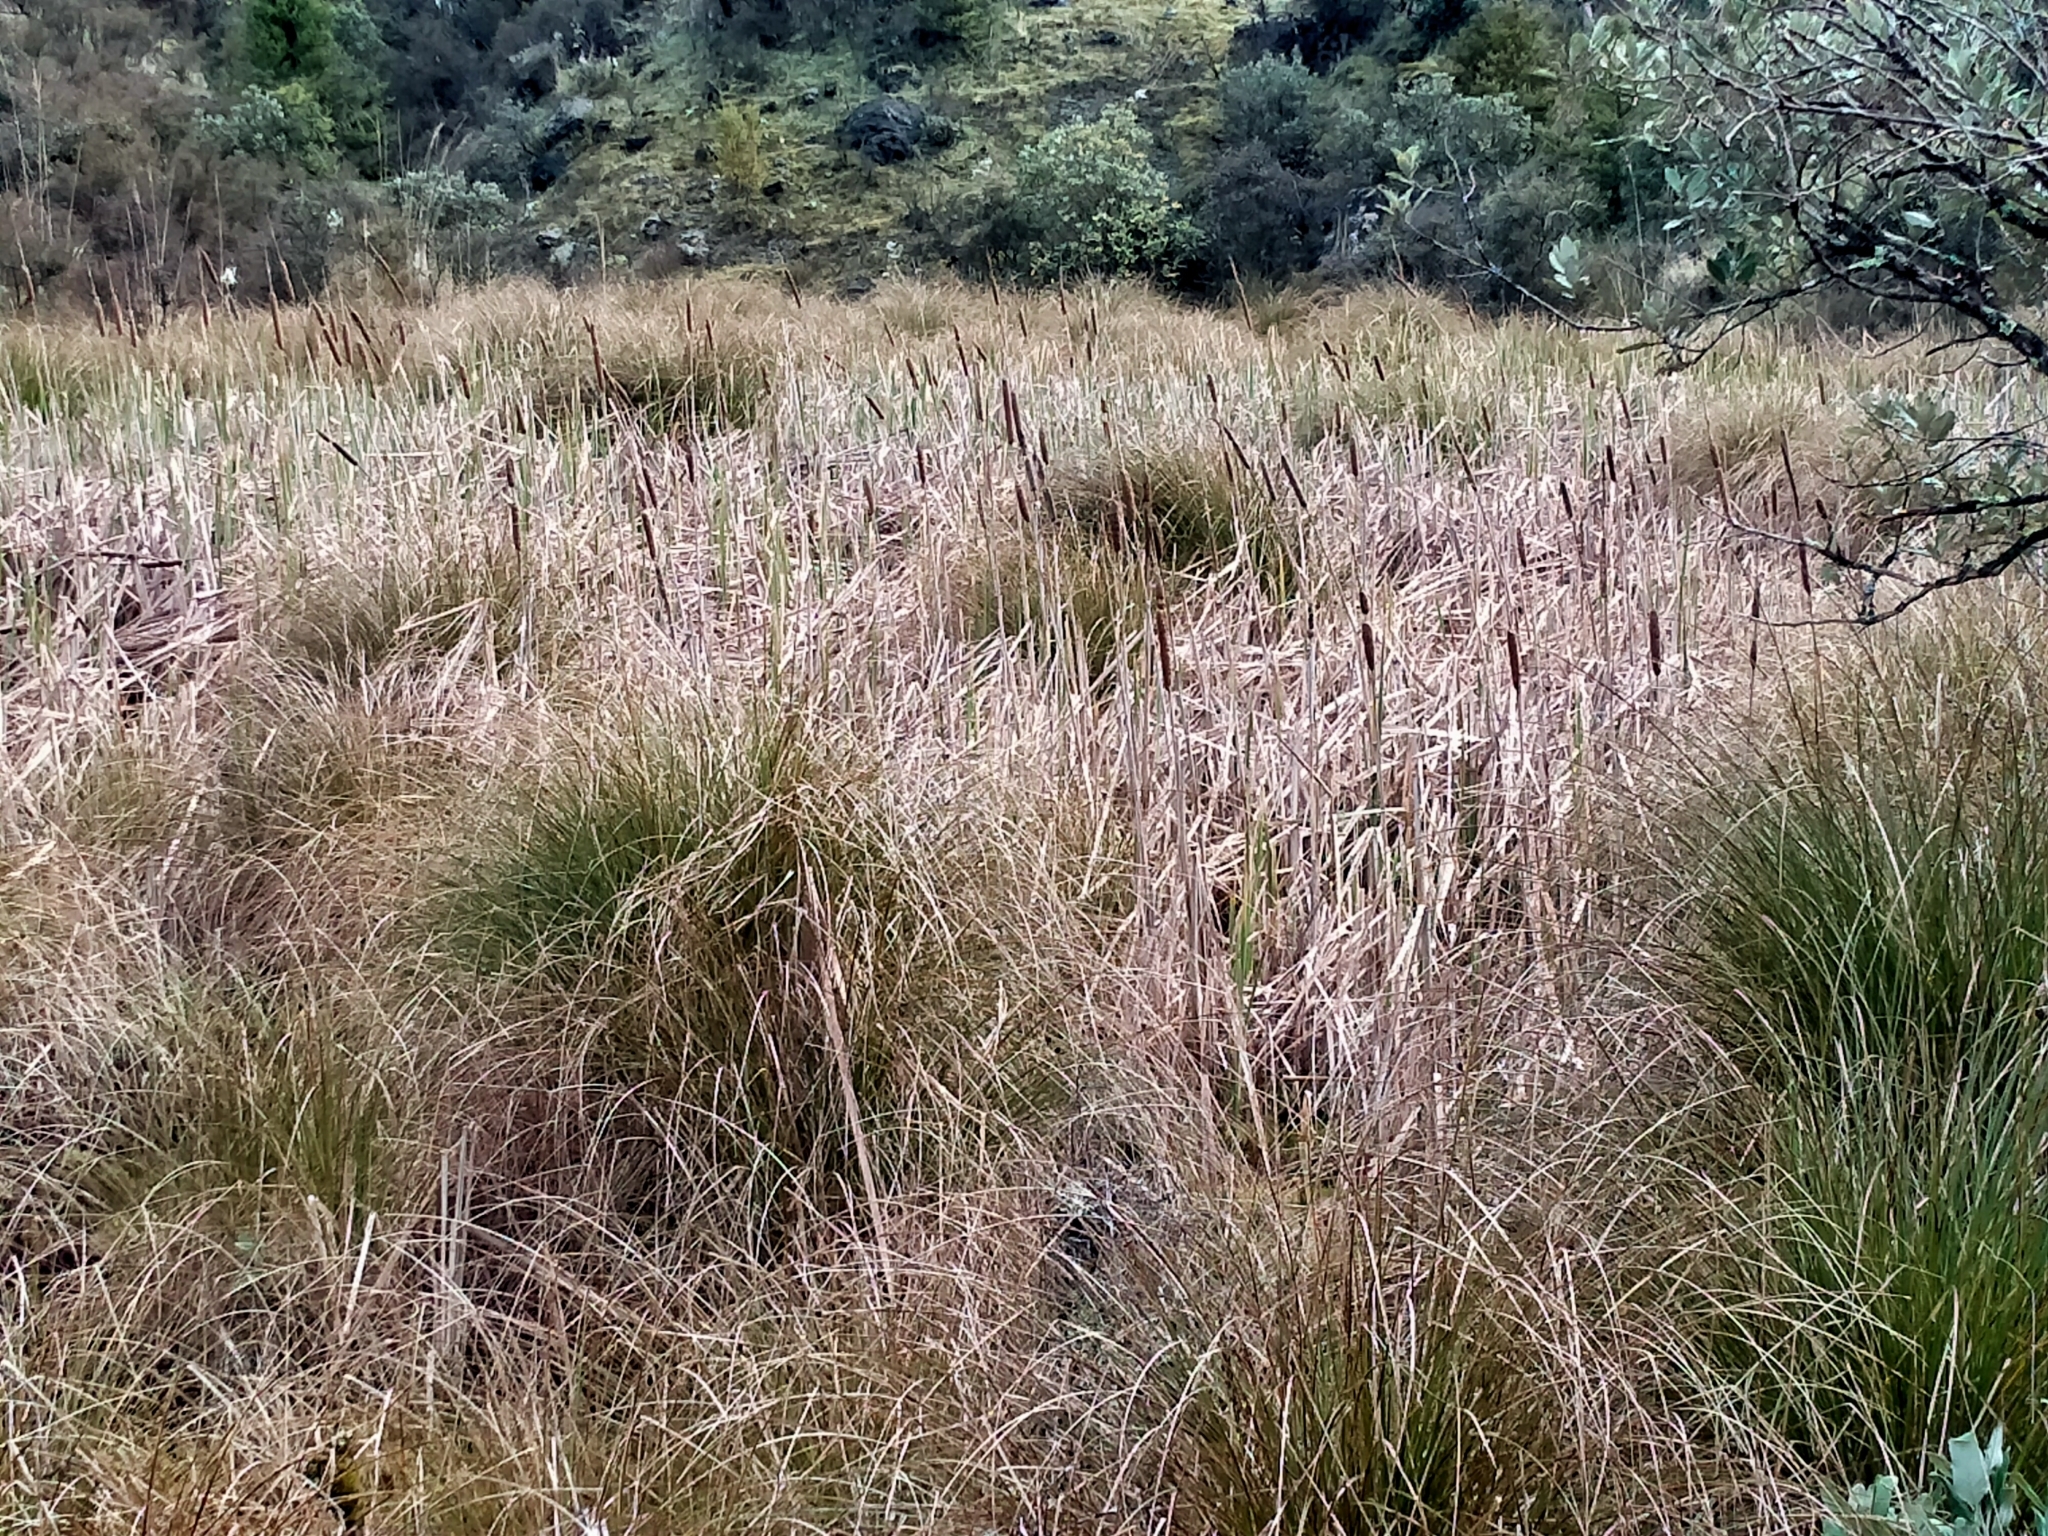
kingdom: Plantae
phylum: Tracheophyta
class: Liliopsida
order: Poales
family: Typhaceae
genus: Typha
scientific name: Typha orientalis
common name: Bullrush
